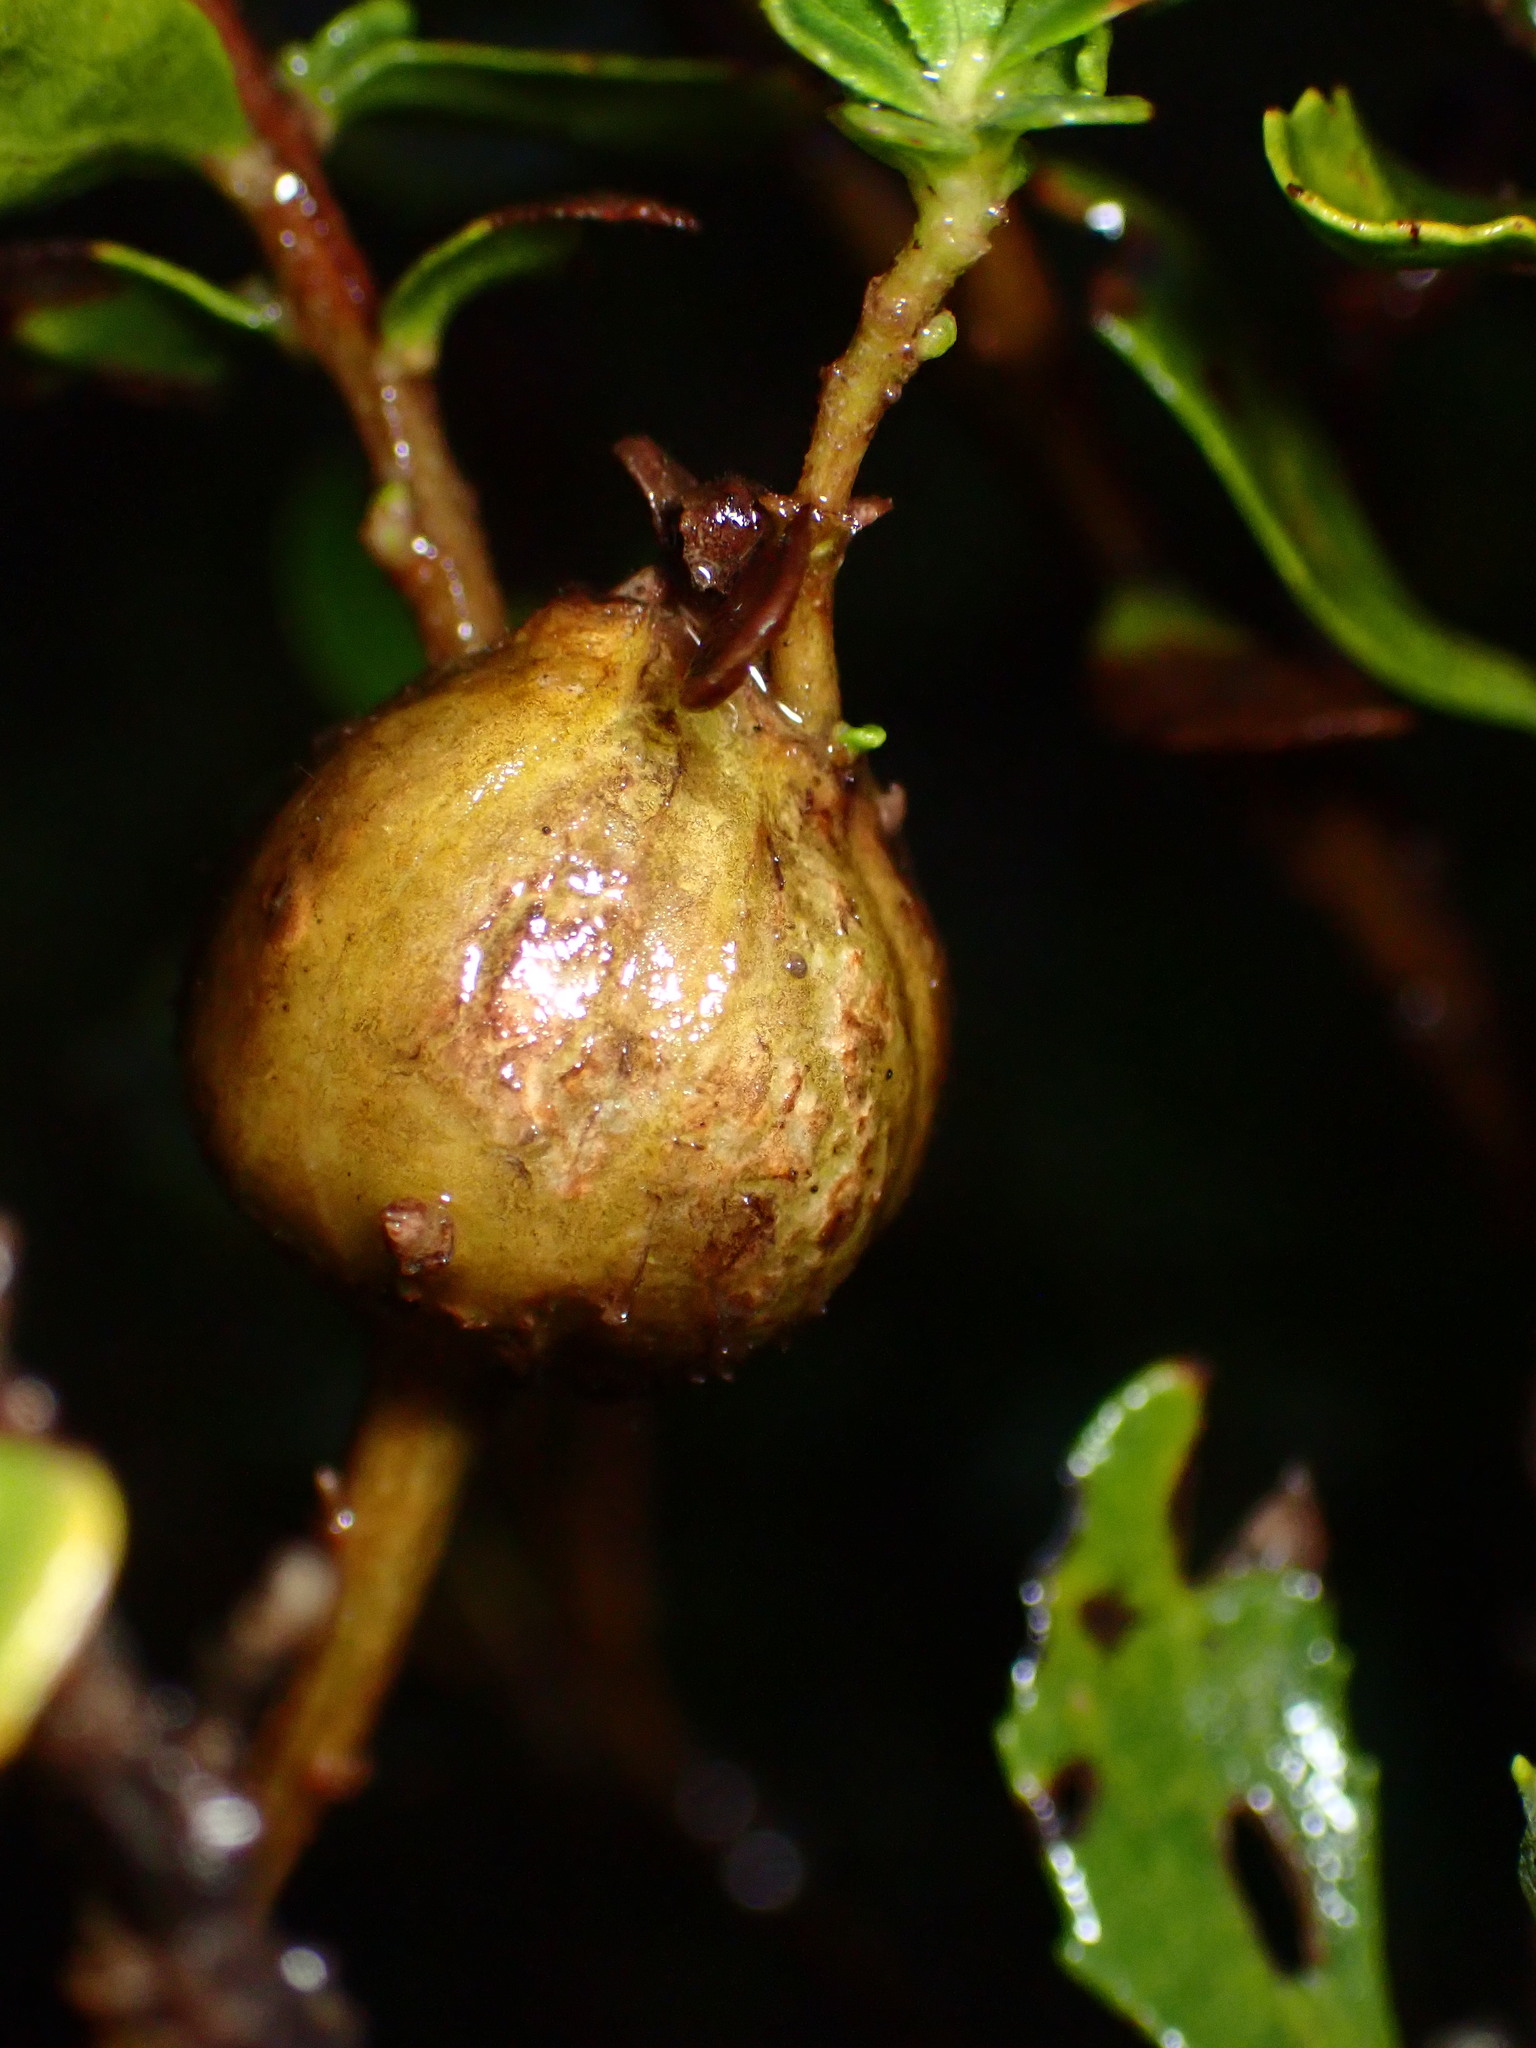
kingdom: Animalia
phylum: Arthropoda
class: Insecta
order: Lepidoptera
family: Gelechiidae
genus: Gnorimoschema
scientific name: Gnorimoschema baccharisella
